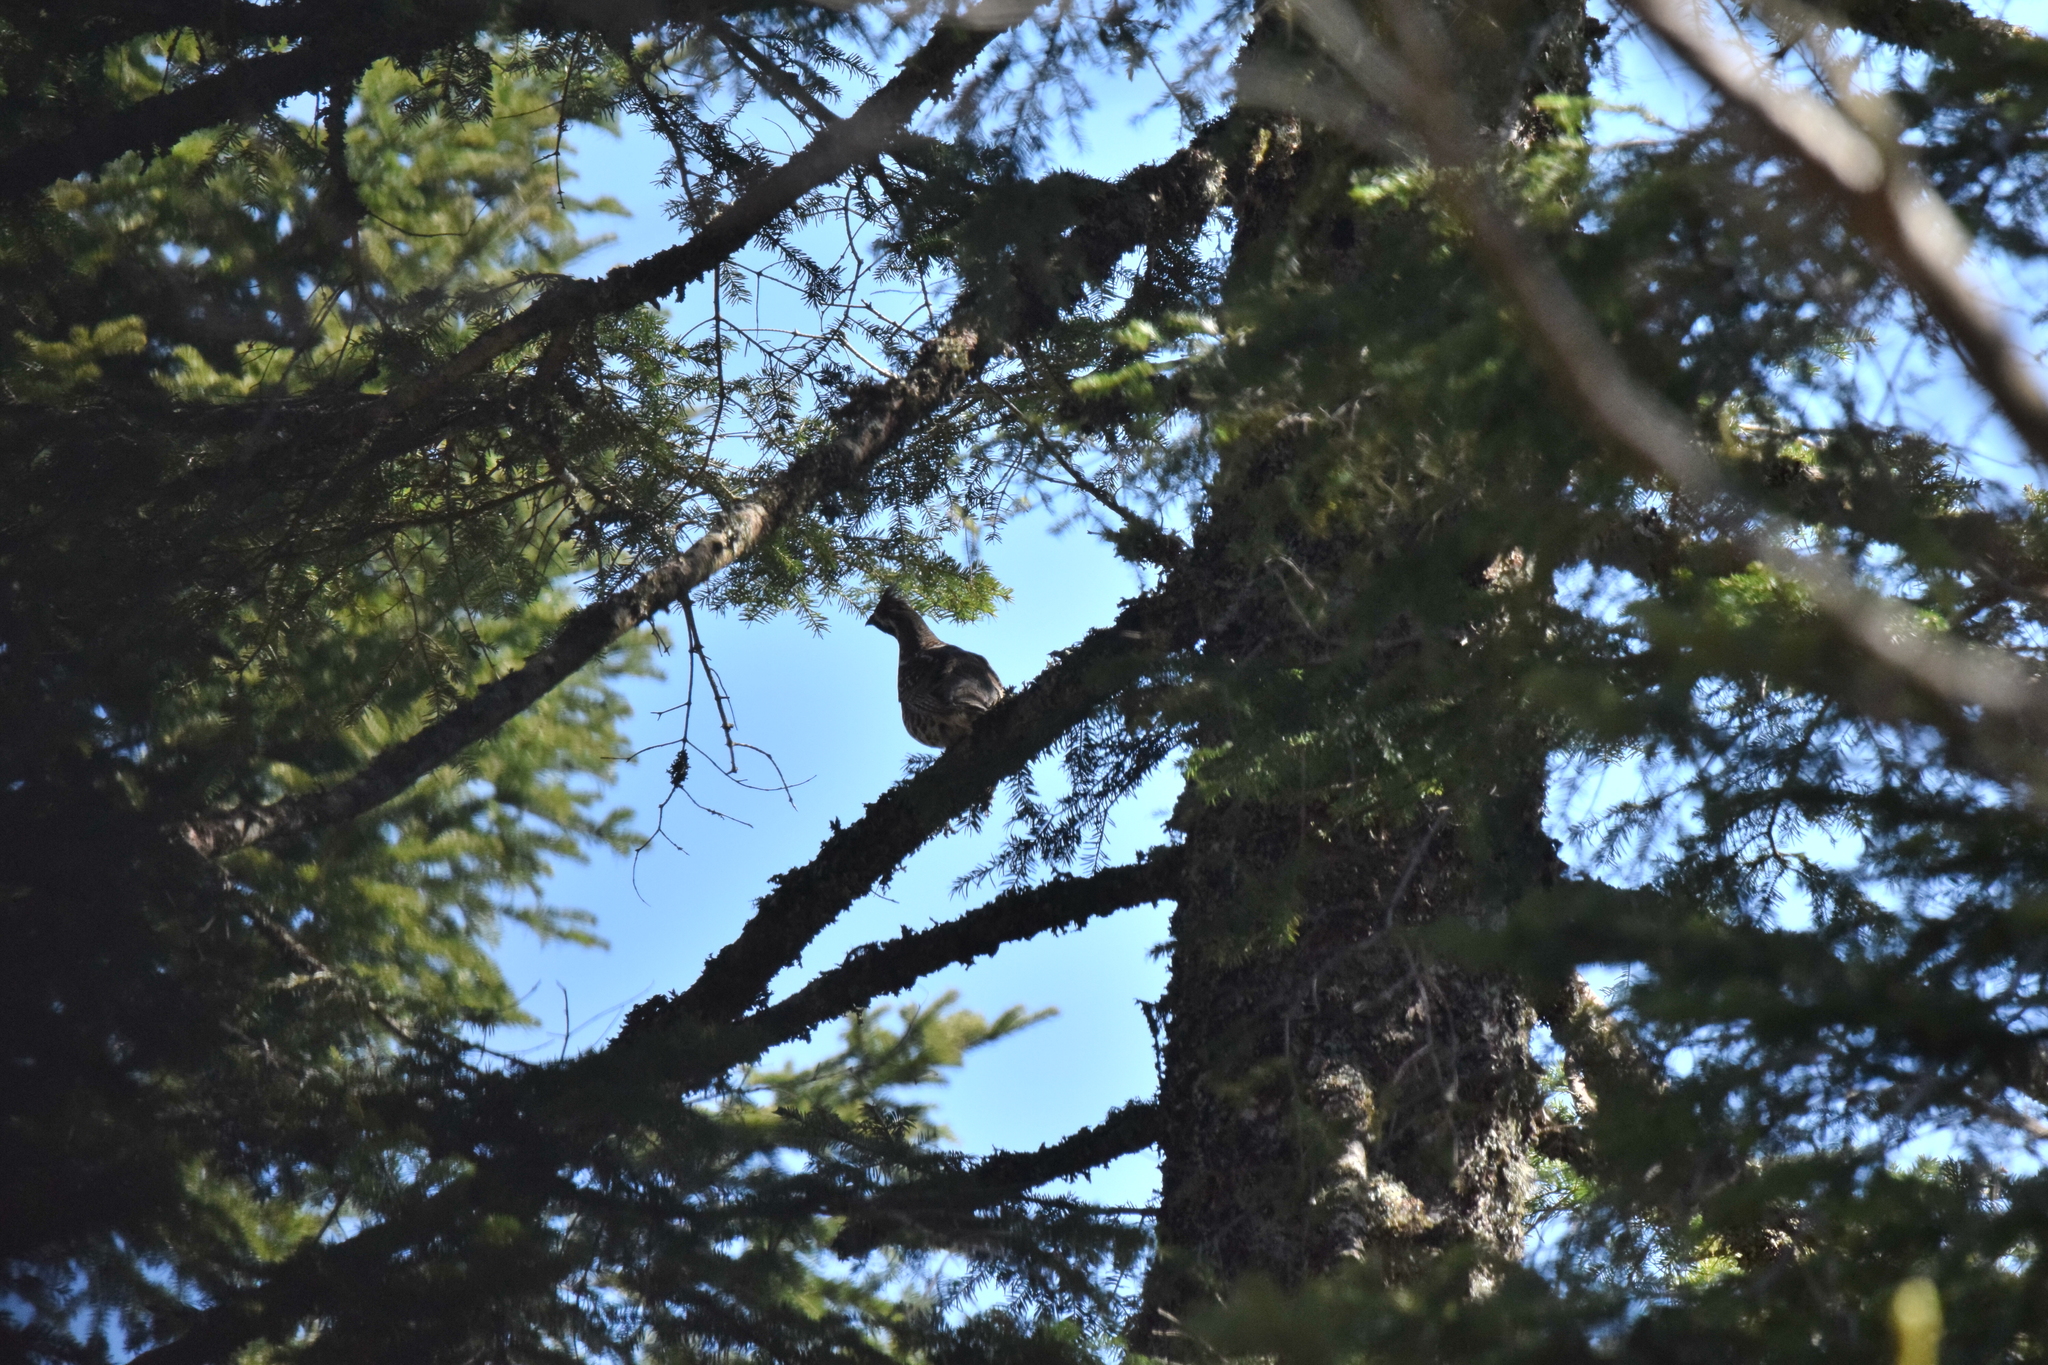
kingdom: Animalia
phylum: Chordata
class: Aves
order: Galliformes
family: Phasianidae
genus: Tetrastes
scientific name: Tetrastes bonasia
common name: Hazel grouse
